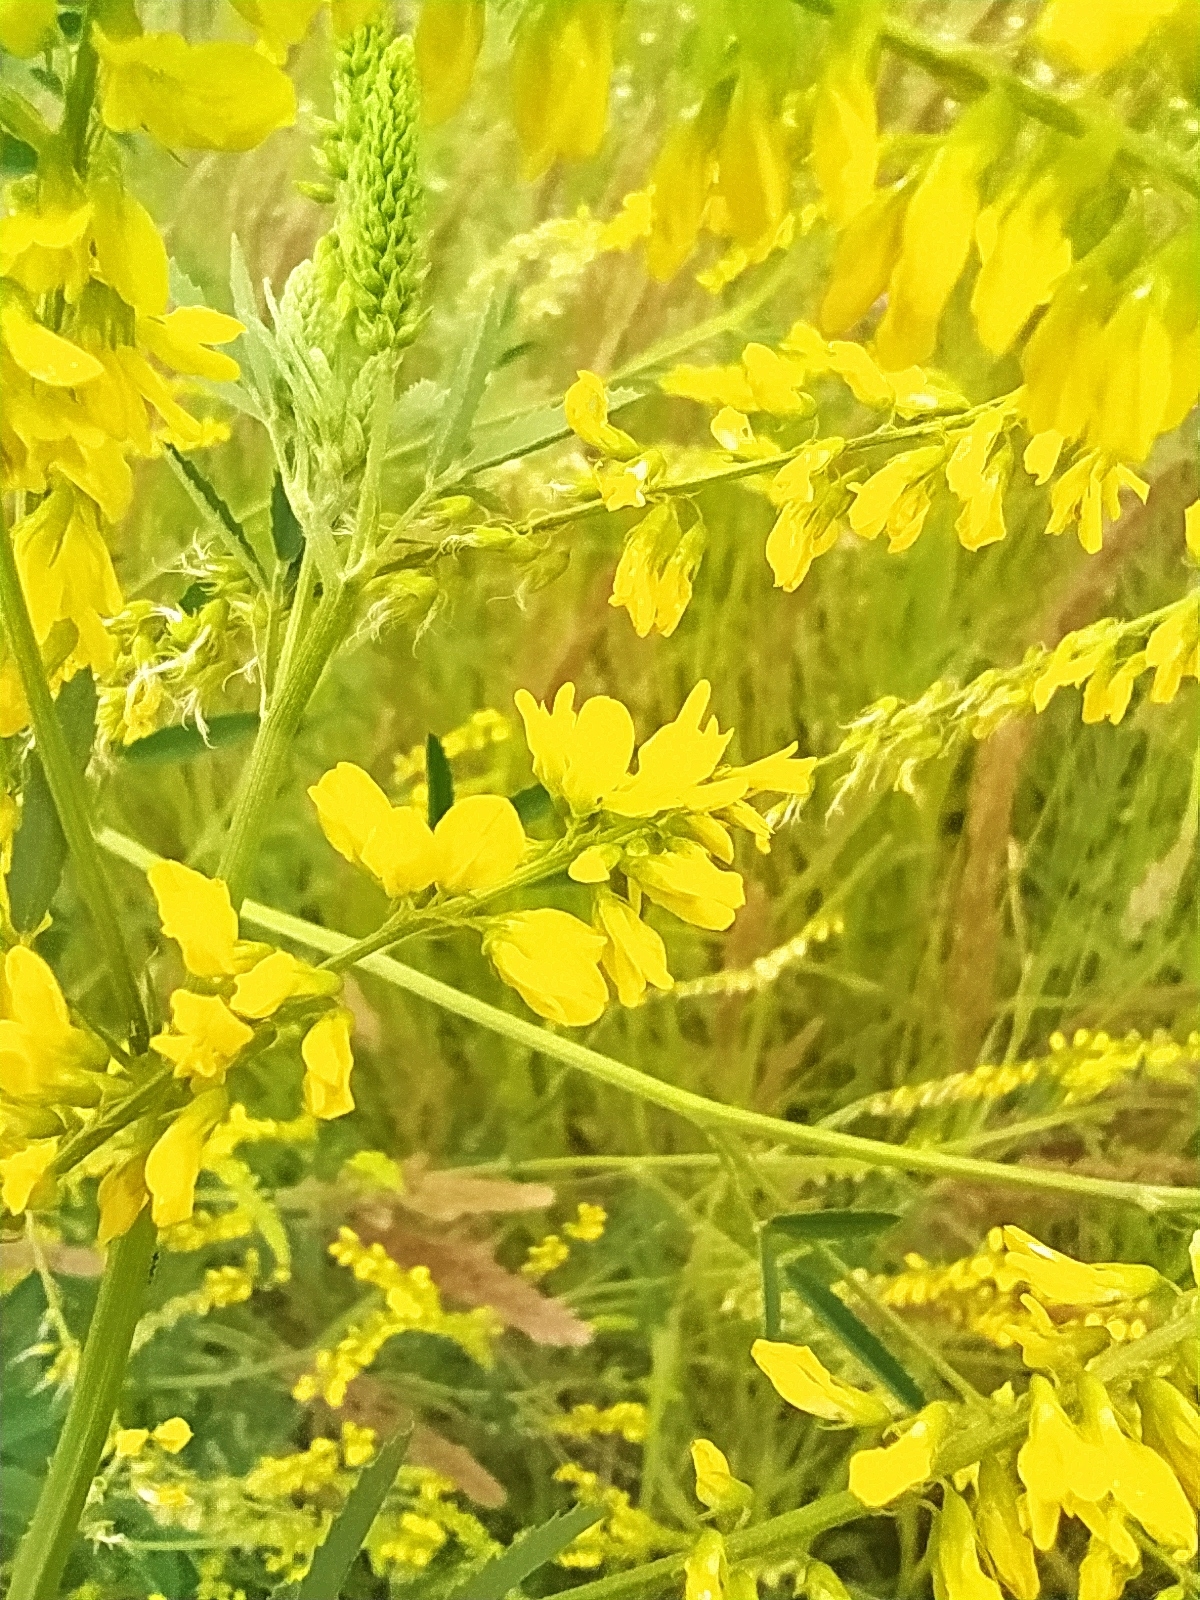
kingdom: Plantae
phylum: Tracheophyta
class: Magnoliopsida
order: Fabales
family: Fabaceae
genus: Melilotus
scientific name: Melilotus officinalis
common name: Sweetclover
